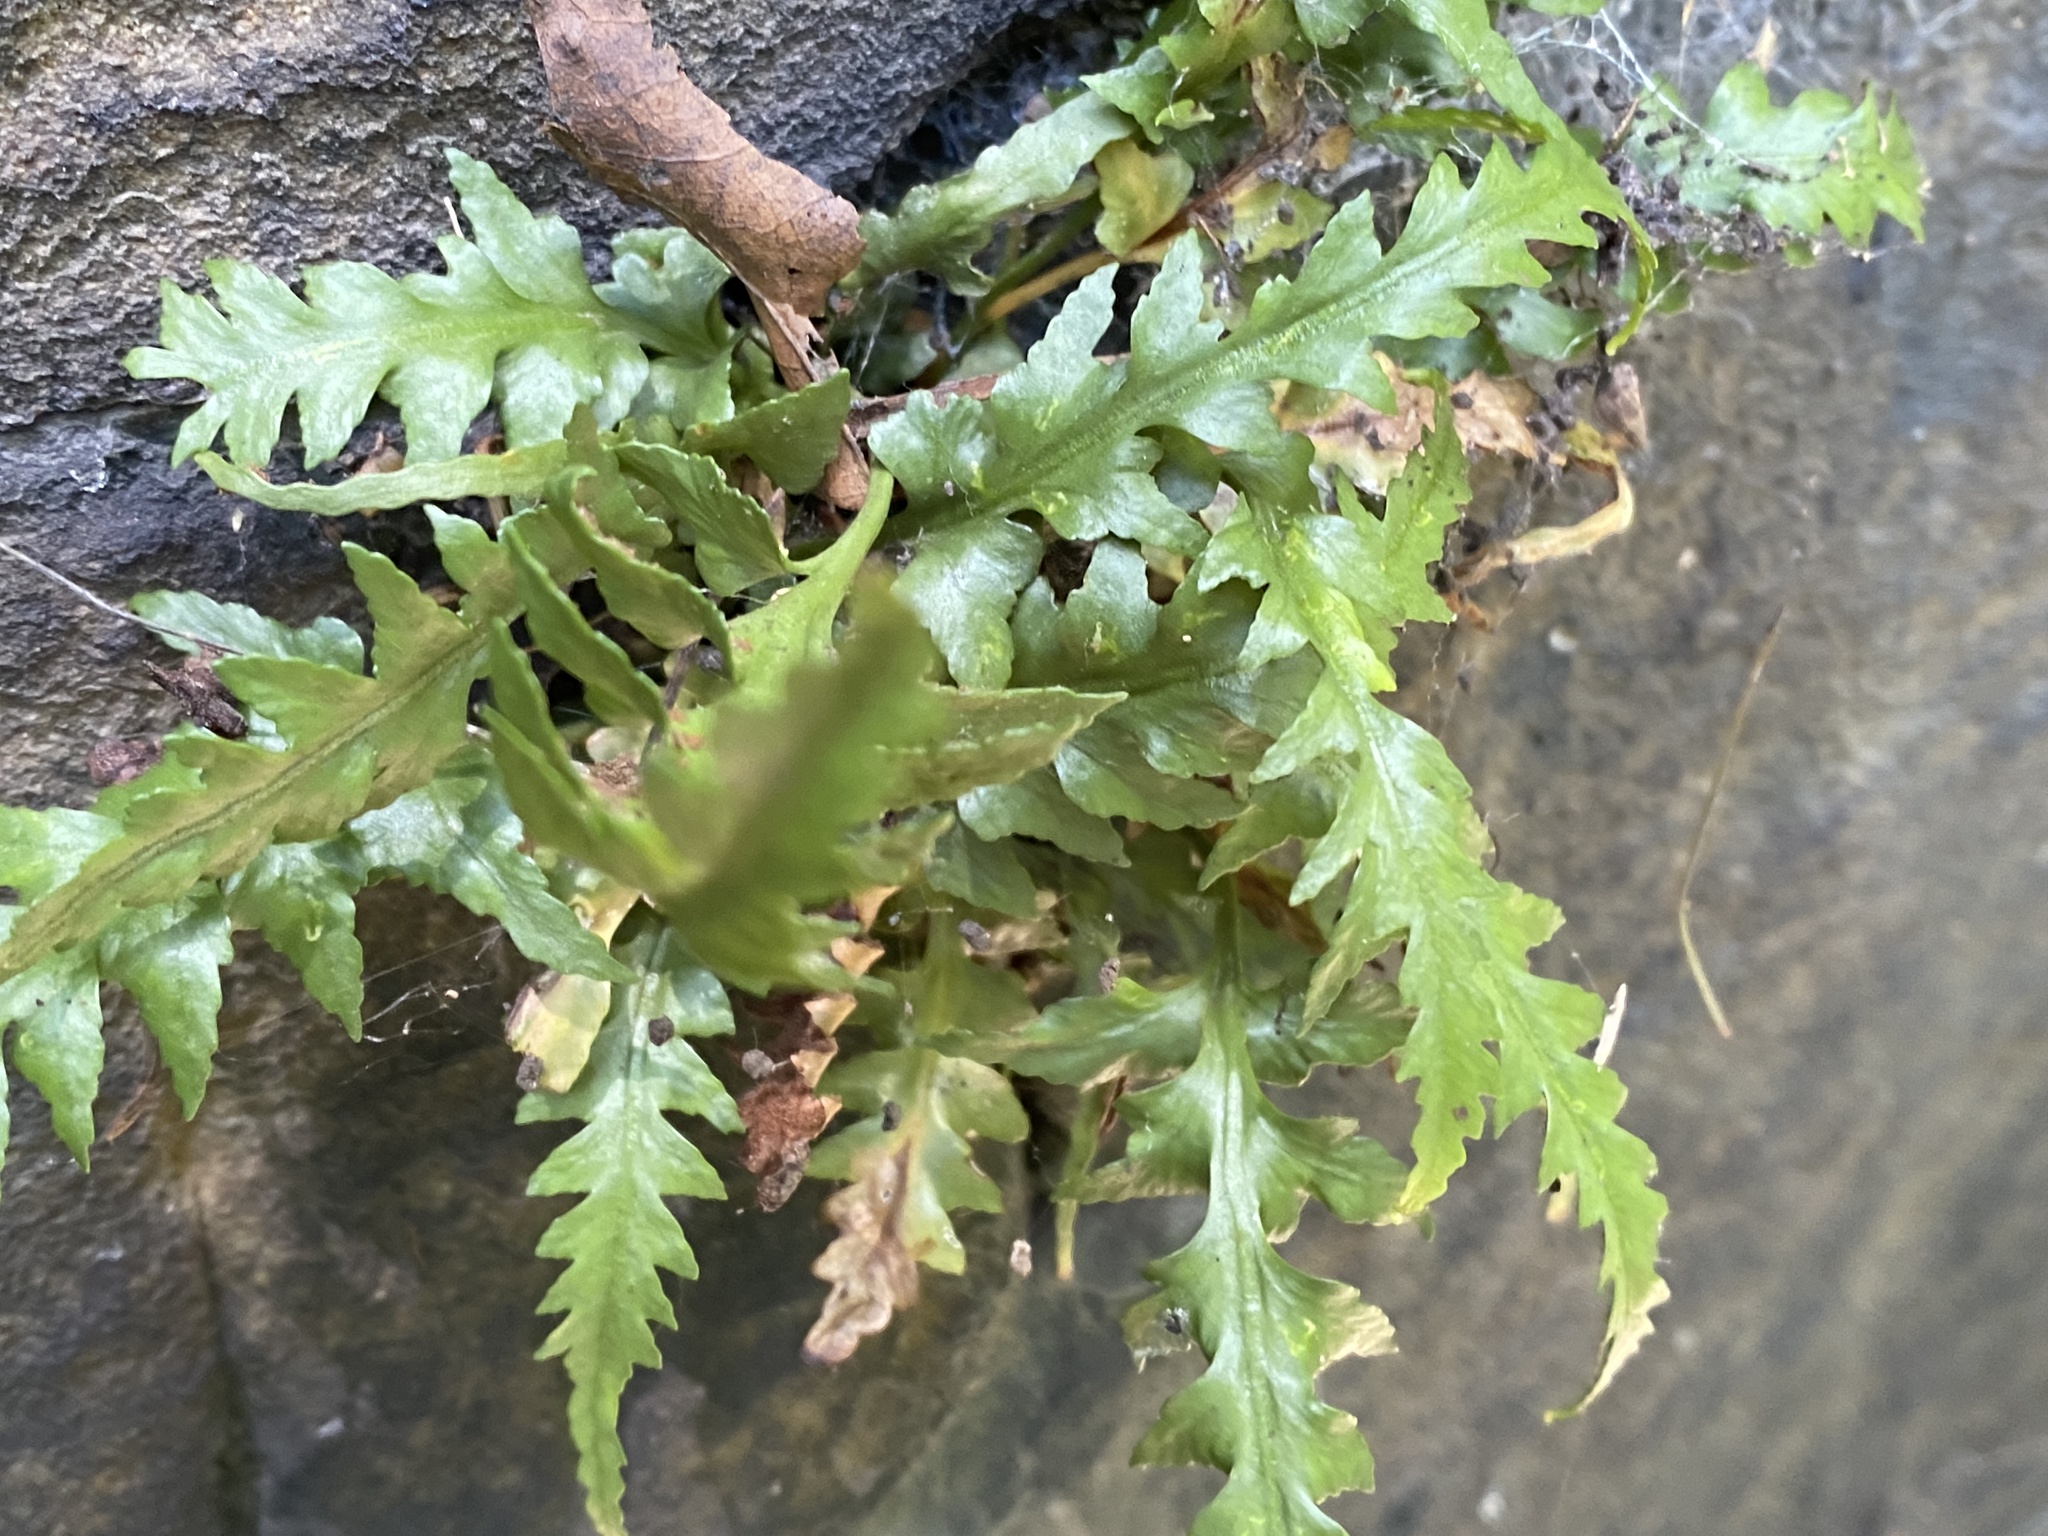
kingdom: Plantae
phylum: Tracheophyta
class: Polypodiopsida
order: Polypodiales
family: Aspleniaceae
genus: Asplenium
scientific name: Asplenium pinnatifidum
